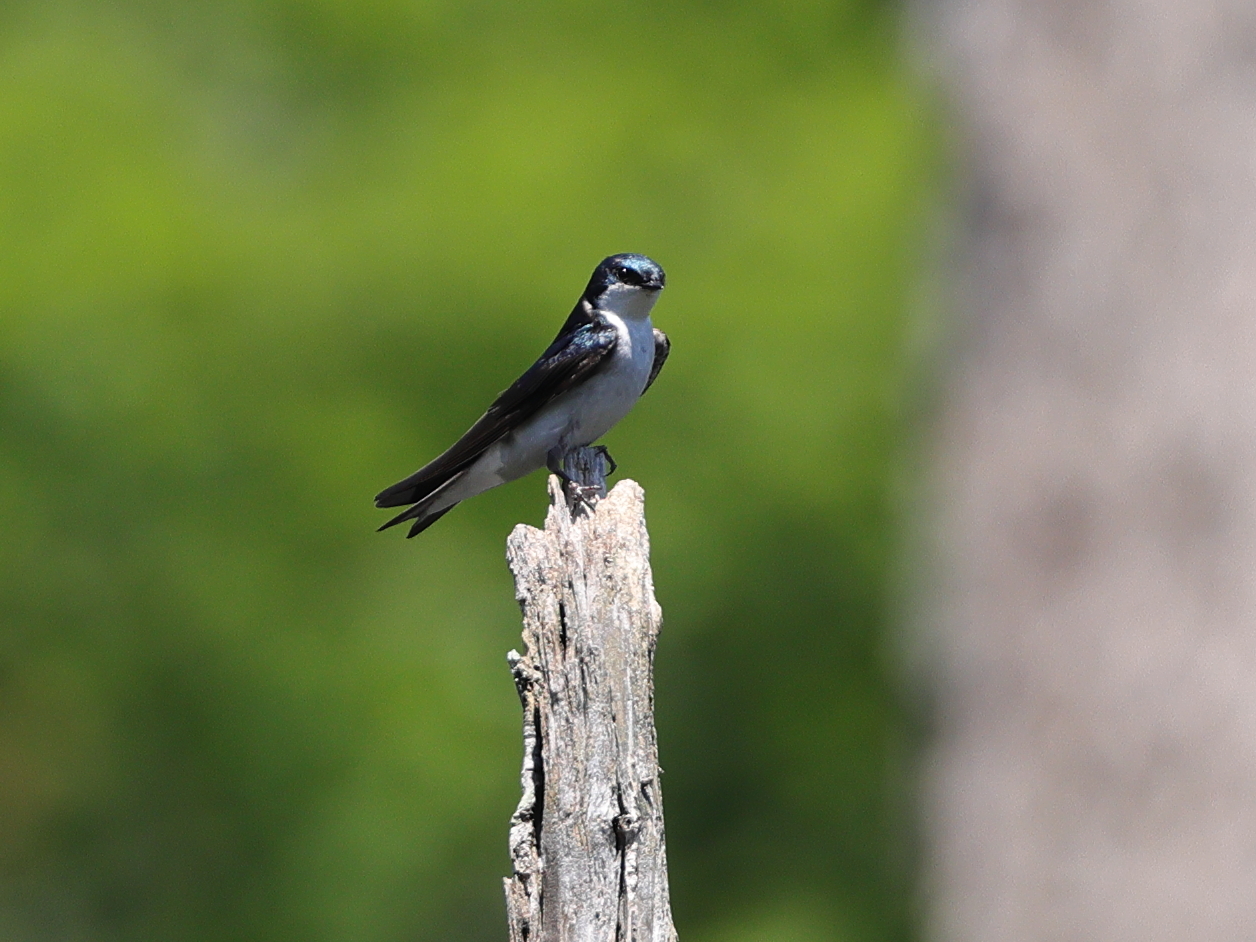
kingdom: Animalia
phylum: Chordata
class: Aves
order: Passeriformes
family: Hirundinidae
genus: Tachycineta
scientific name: Tachycineta bicolor
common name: Tree swallow
